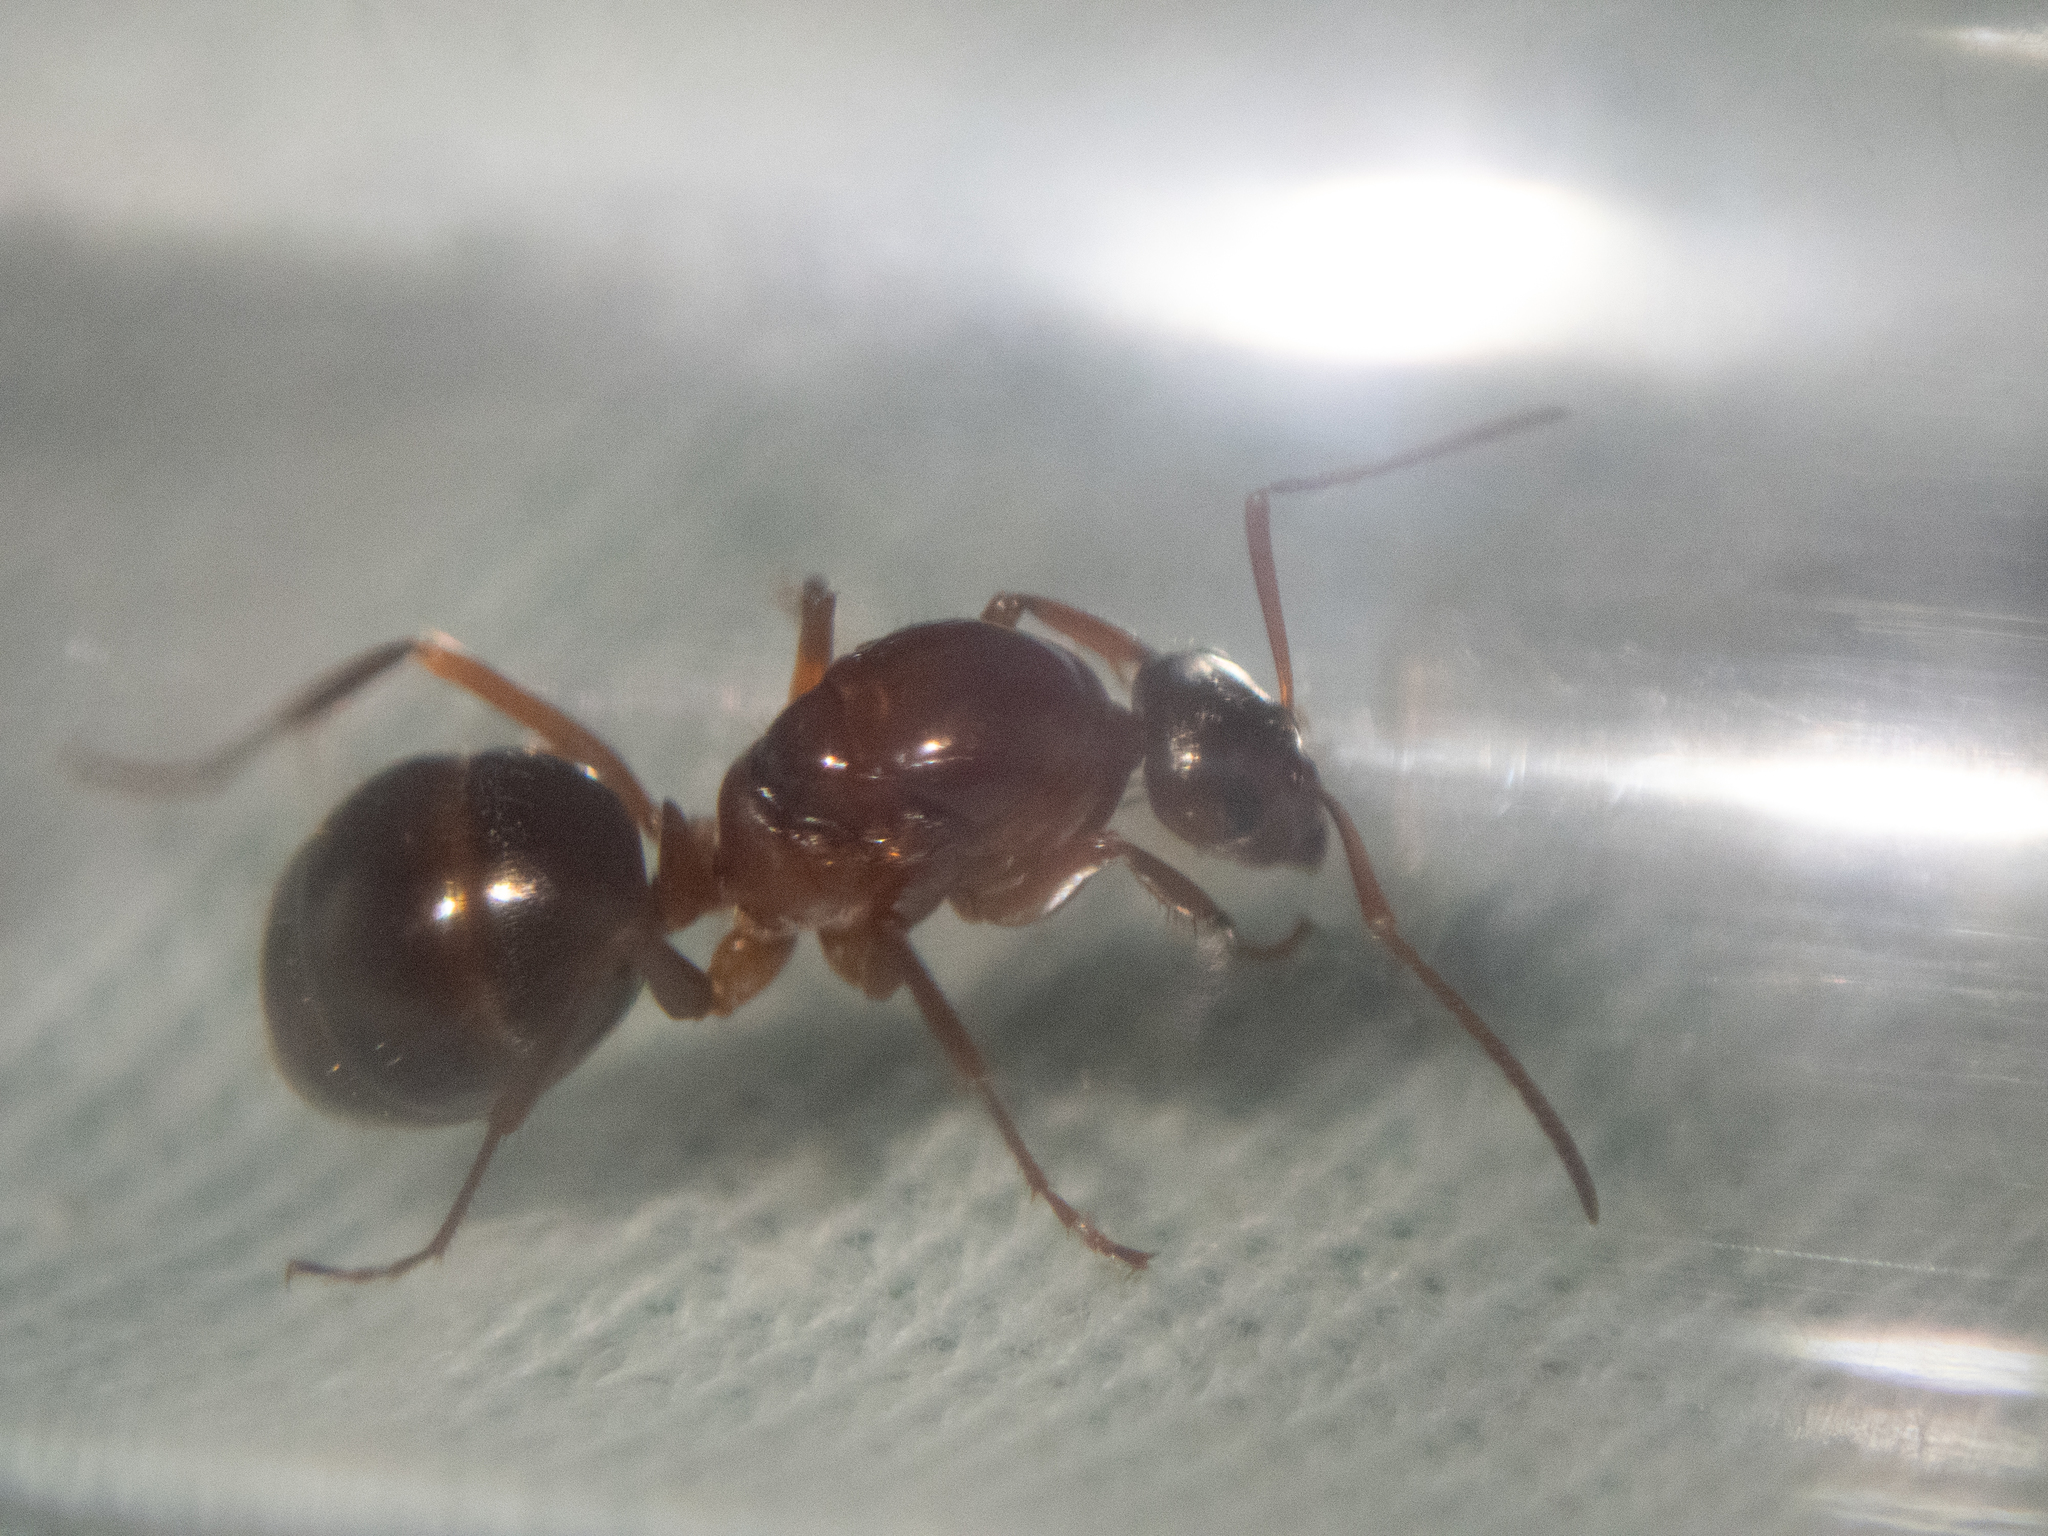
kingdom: Animalia
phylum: Arthropoda
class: Insecta
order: Hymenoptera
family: Formicidae
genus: Formica
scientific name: Formica pallidefulva
